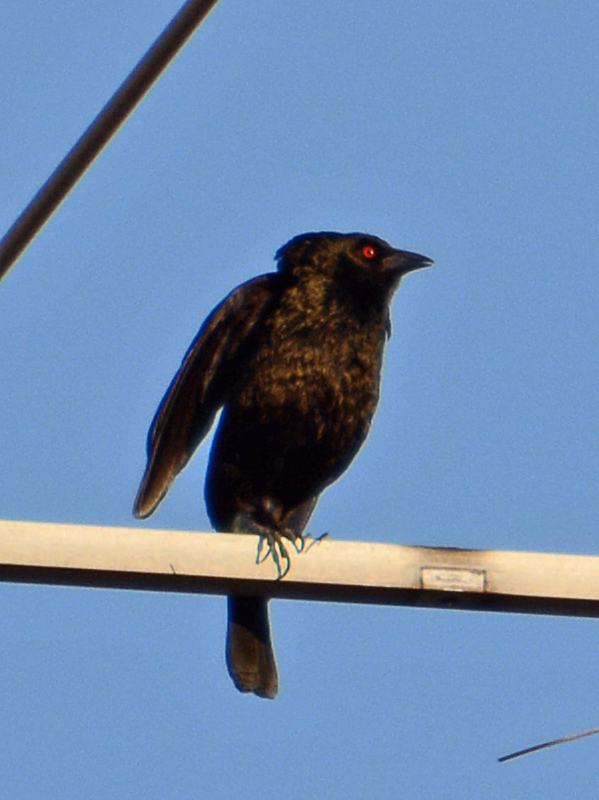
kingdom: Animalia
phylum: Chordata
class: Aves
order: Passeriformes
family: Icteridae
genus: Molothrus
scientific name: Molothrus aeneus
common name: Bronzed cowbird
